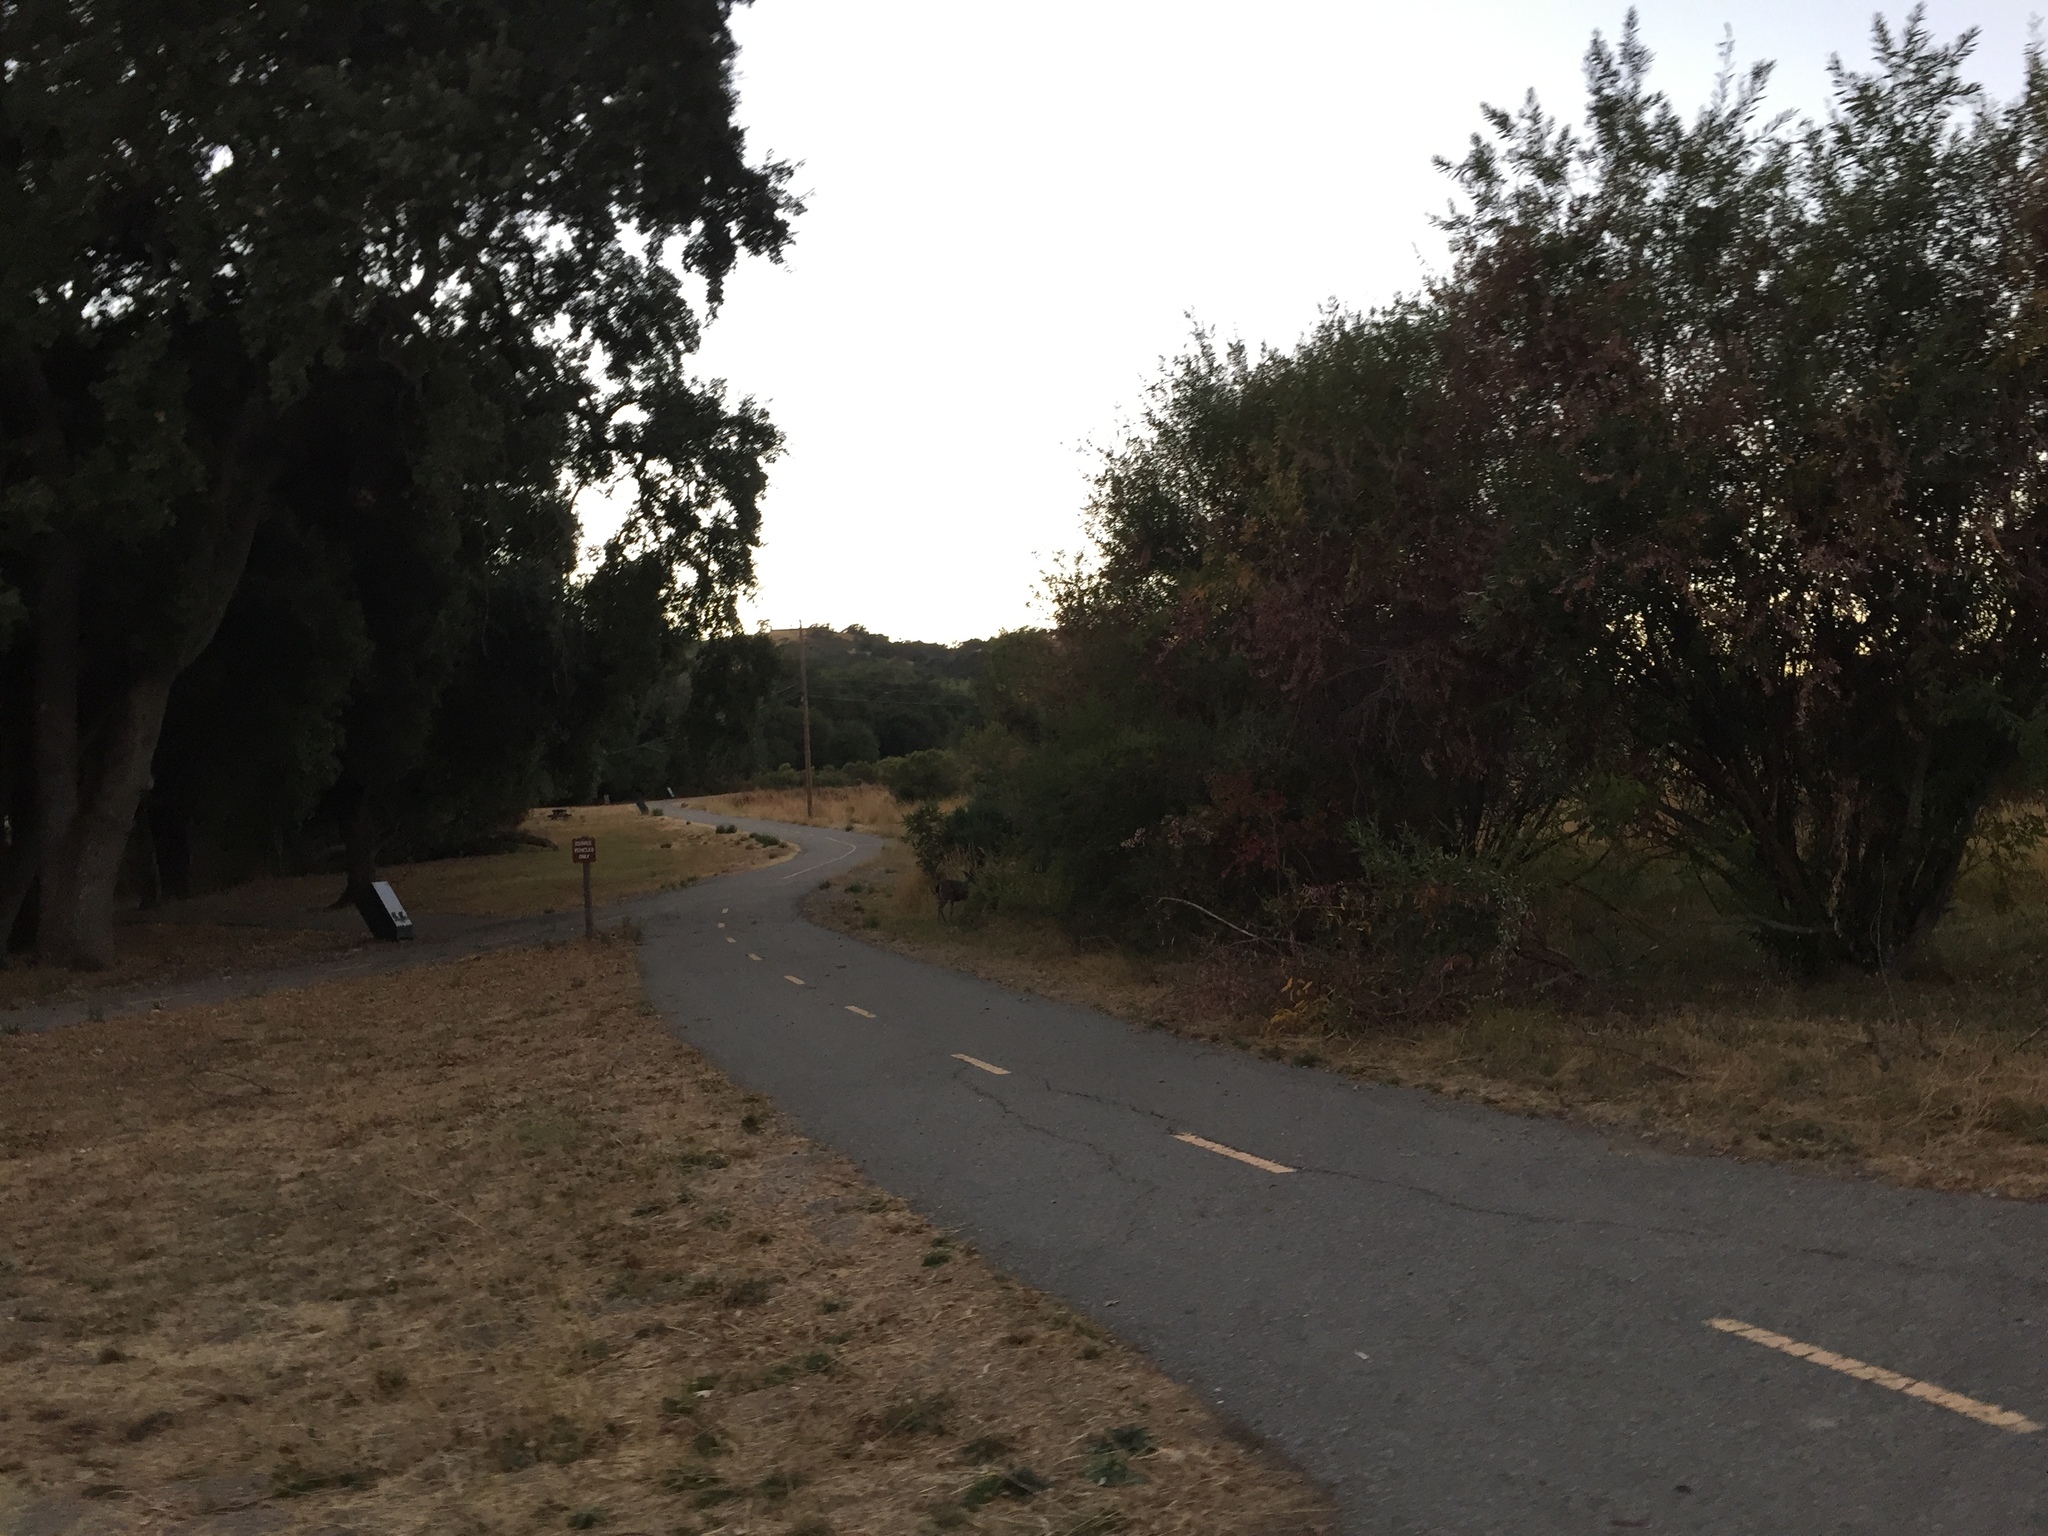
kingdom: Animalia
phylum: Chordata
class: Mammalia
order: Artiodactyla
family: Cervidae
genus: Odocoileus
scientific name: Odocoileus hemionus
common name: Mule deer
